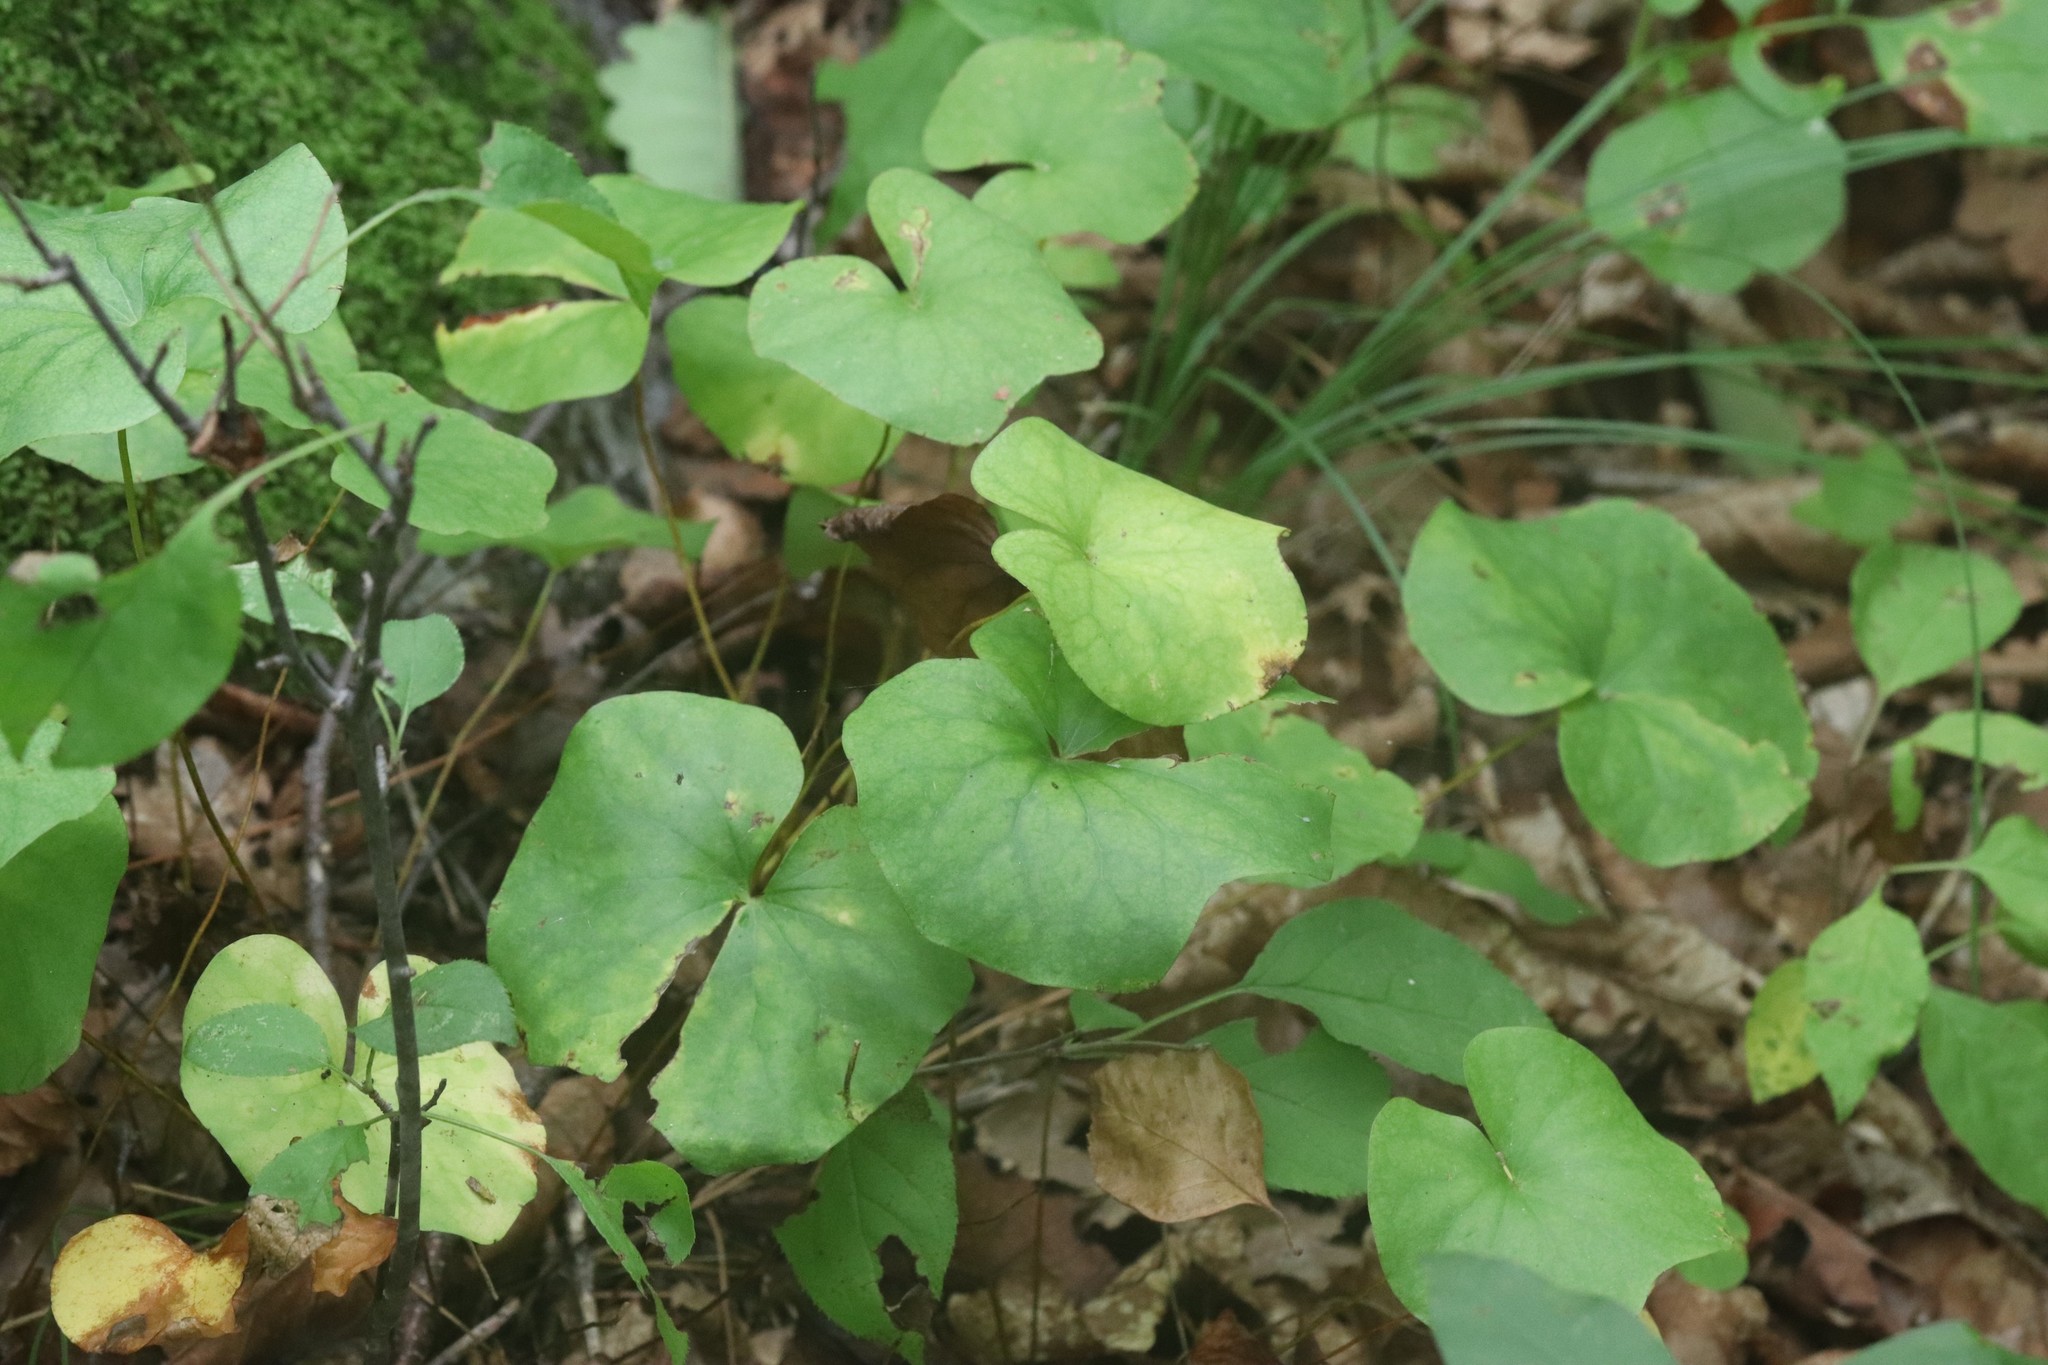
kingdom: Plantae
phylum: Tracheophyta
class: Magnoliopsida
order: Ranunculales
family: Berberidaceae
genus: Plagiorhegma
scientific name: Plagiorhegma dubium
